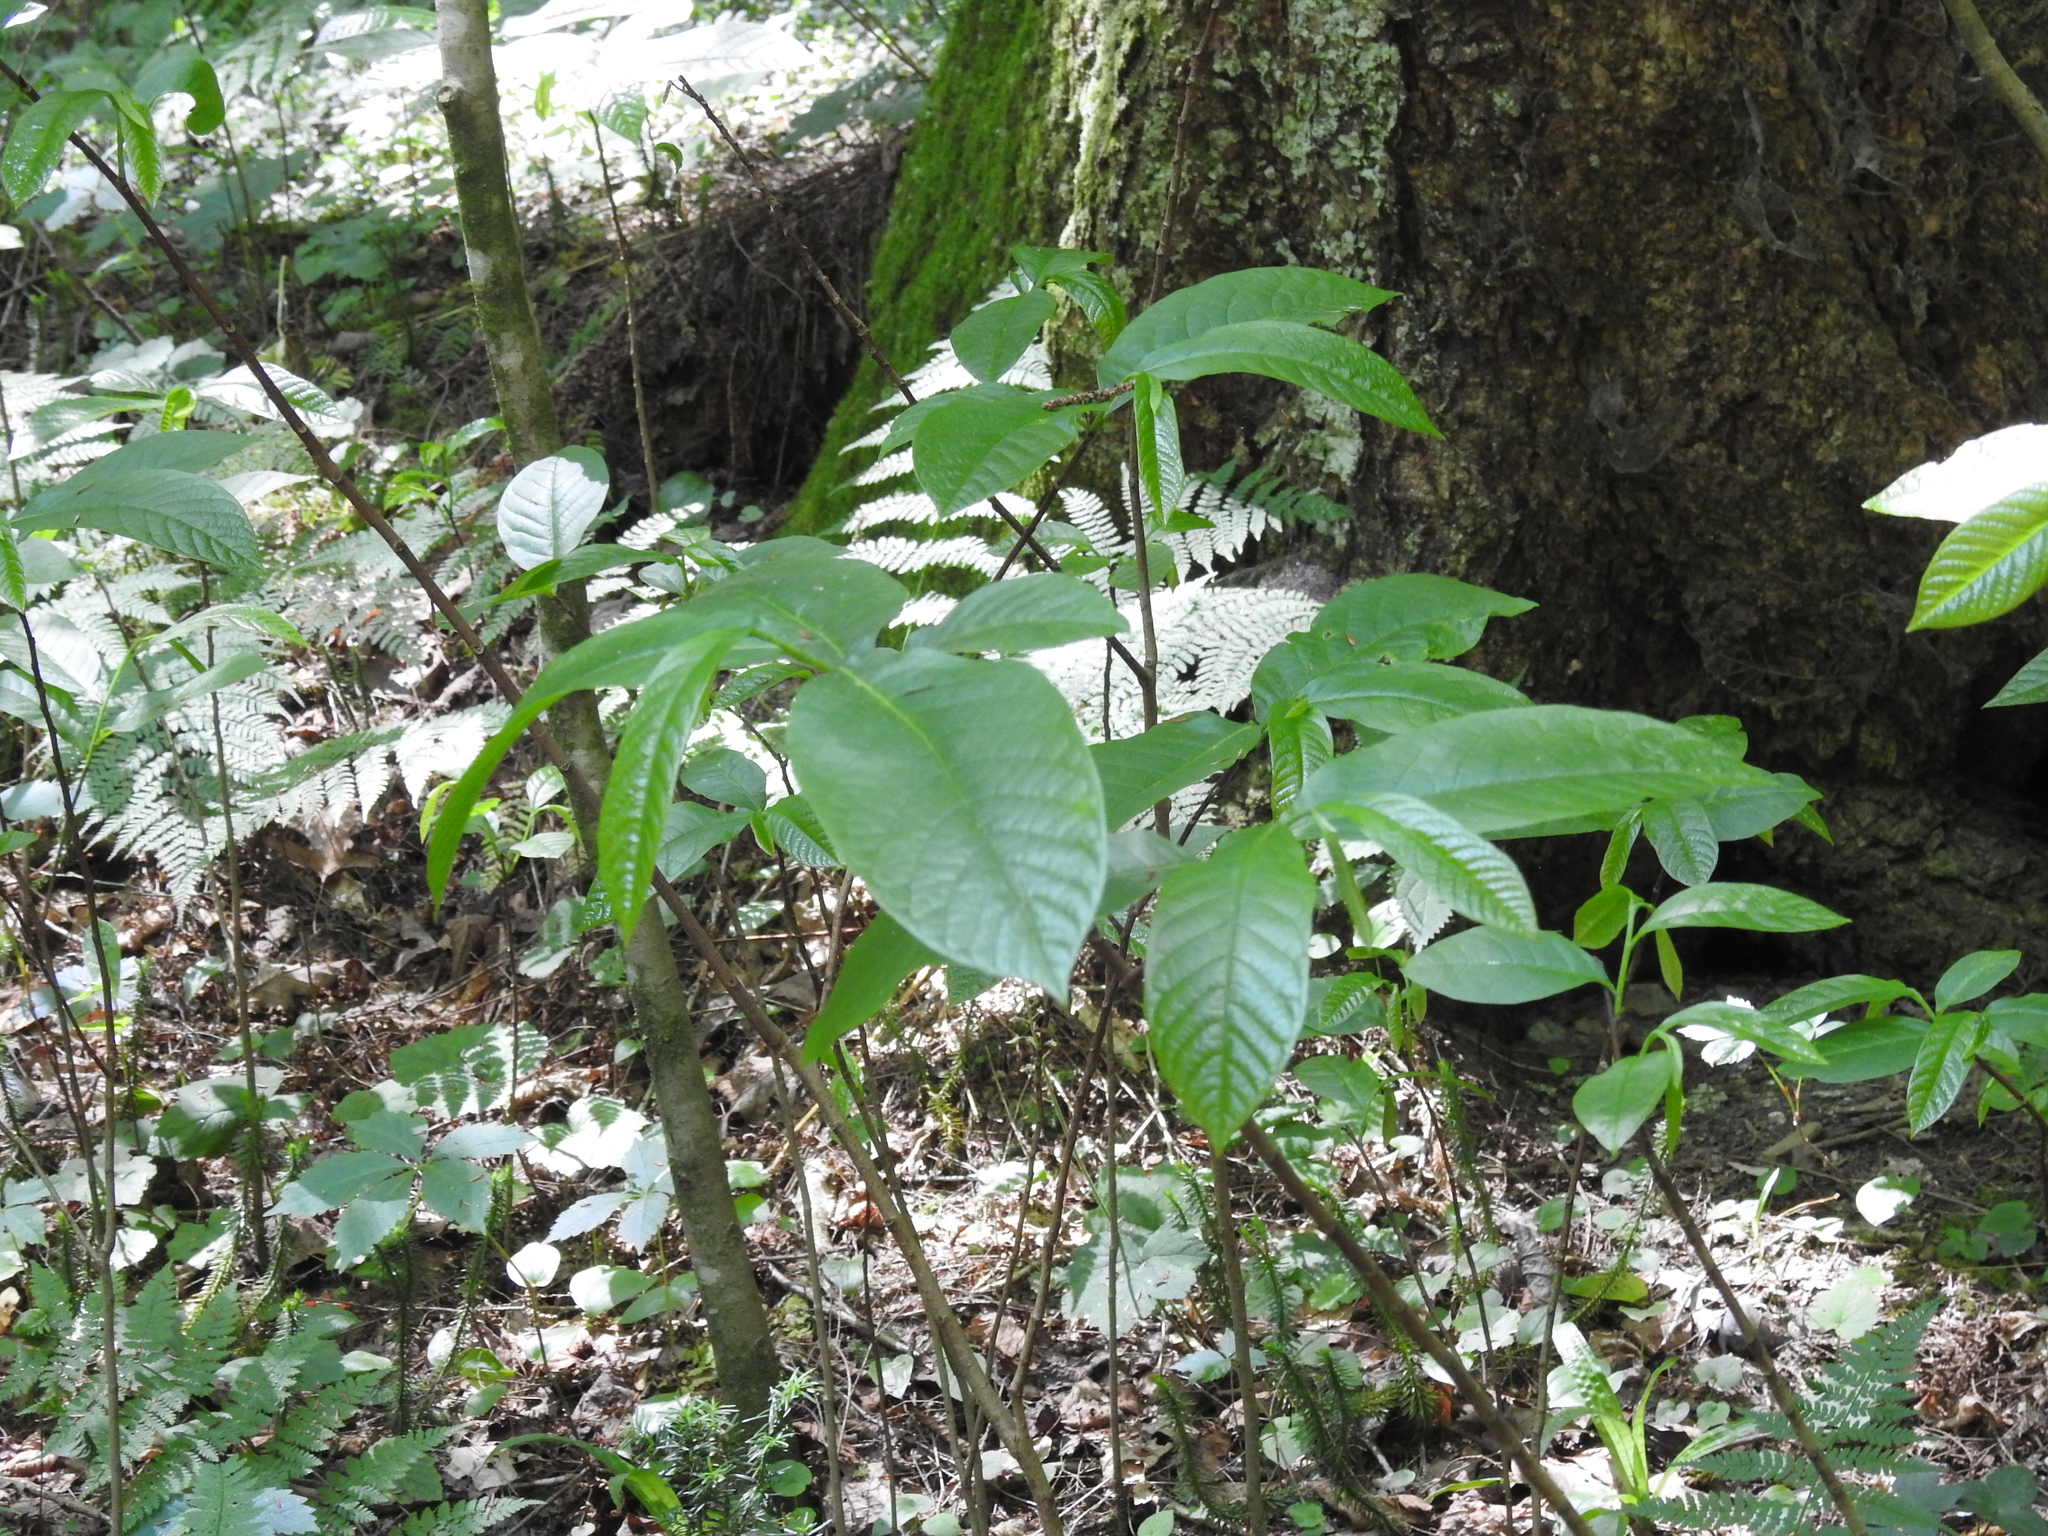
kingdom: Plantae
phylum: Tracheophyta
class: Magnoliopsida
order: Magnoliales
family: Annonaceae
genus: Asimina
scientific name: Asimina triloba
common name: Dog-banana
